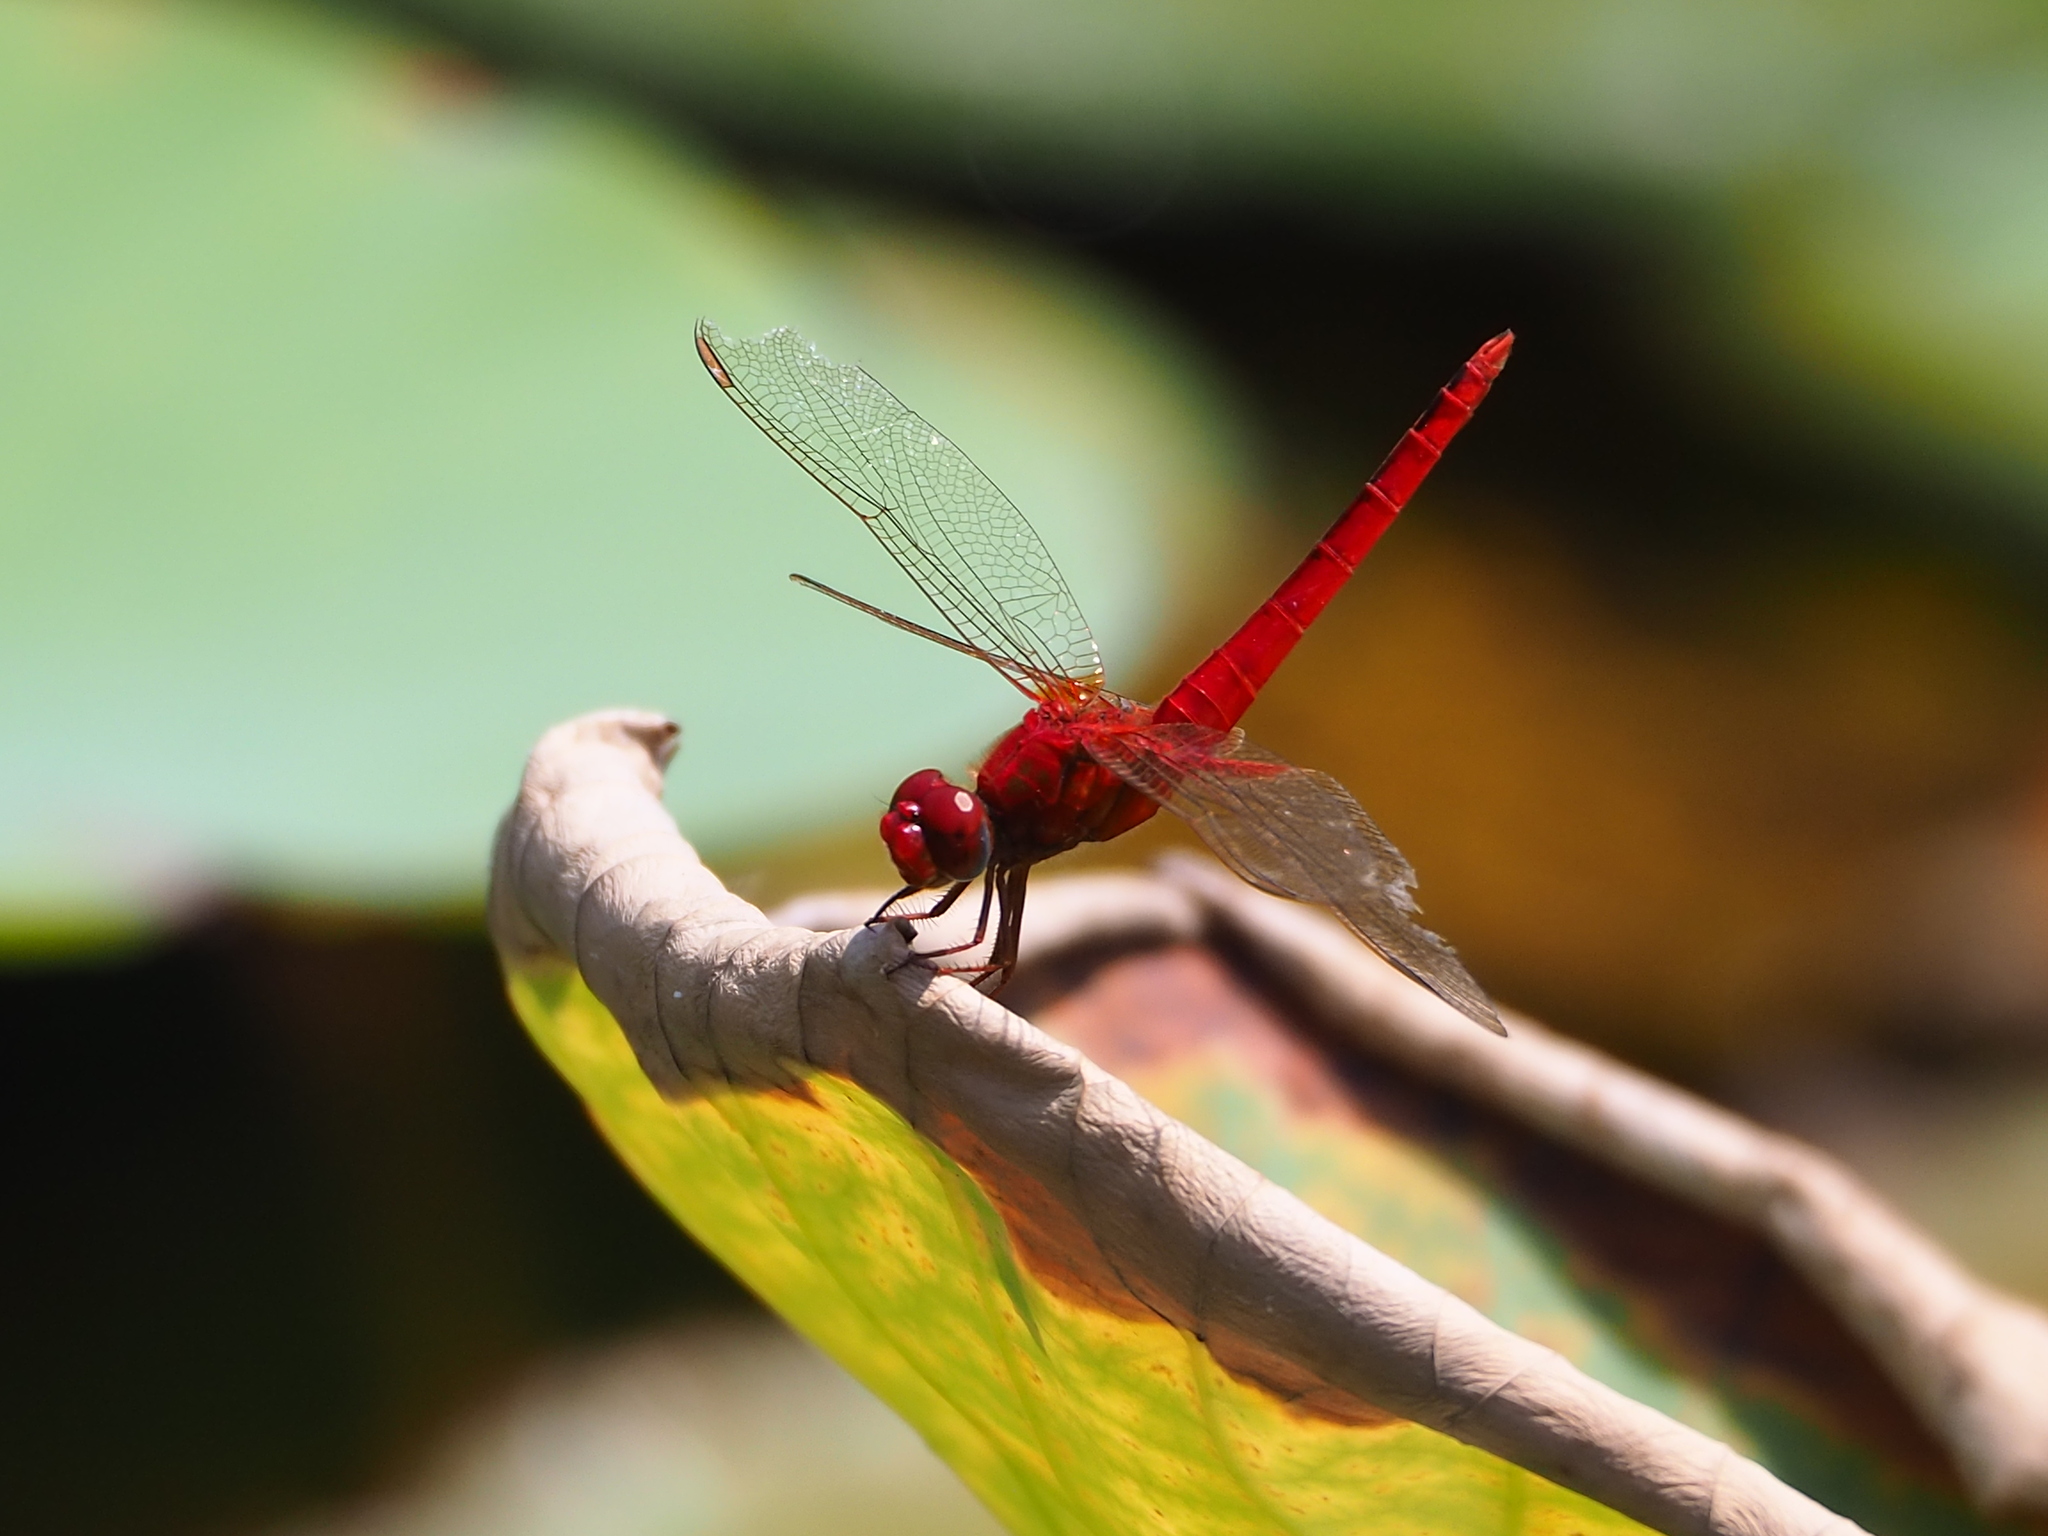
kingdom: Animalia
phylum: Arthropoda
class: Insecta
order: Odonata
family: Libellulidae
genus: Urothemis
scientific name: Urothemis signata
